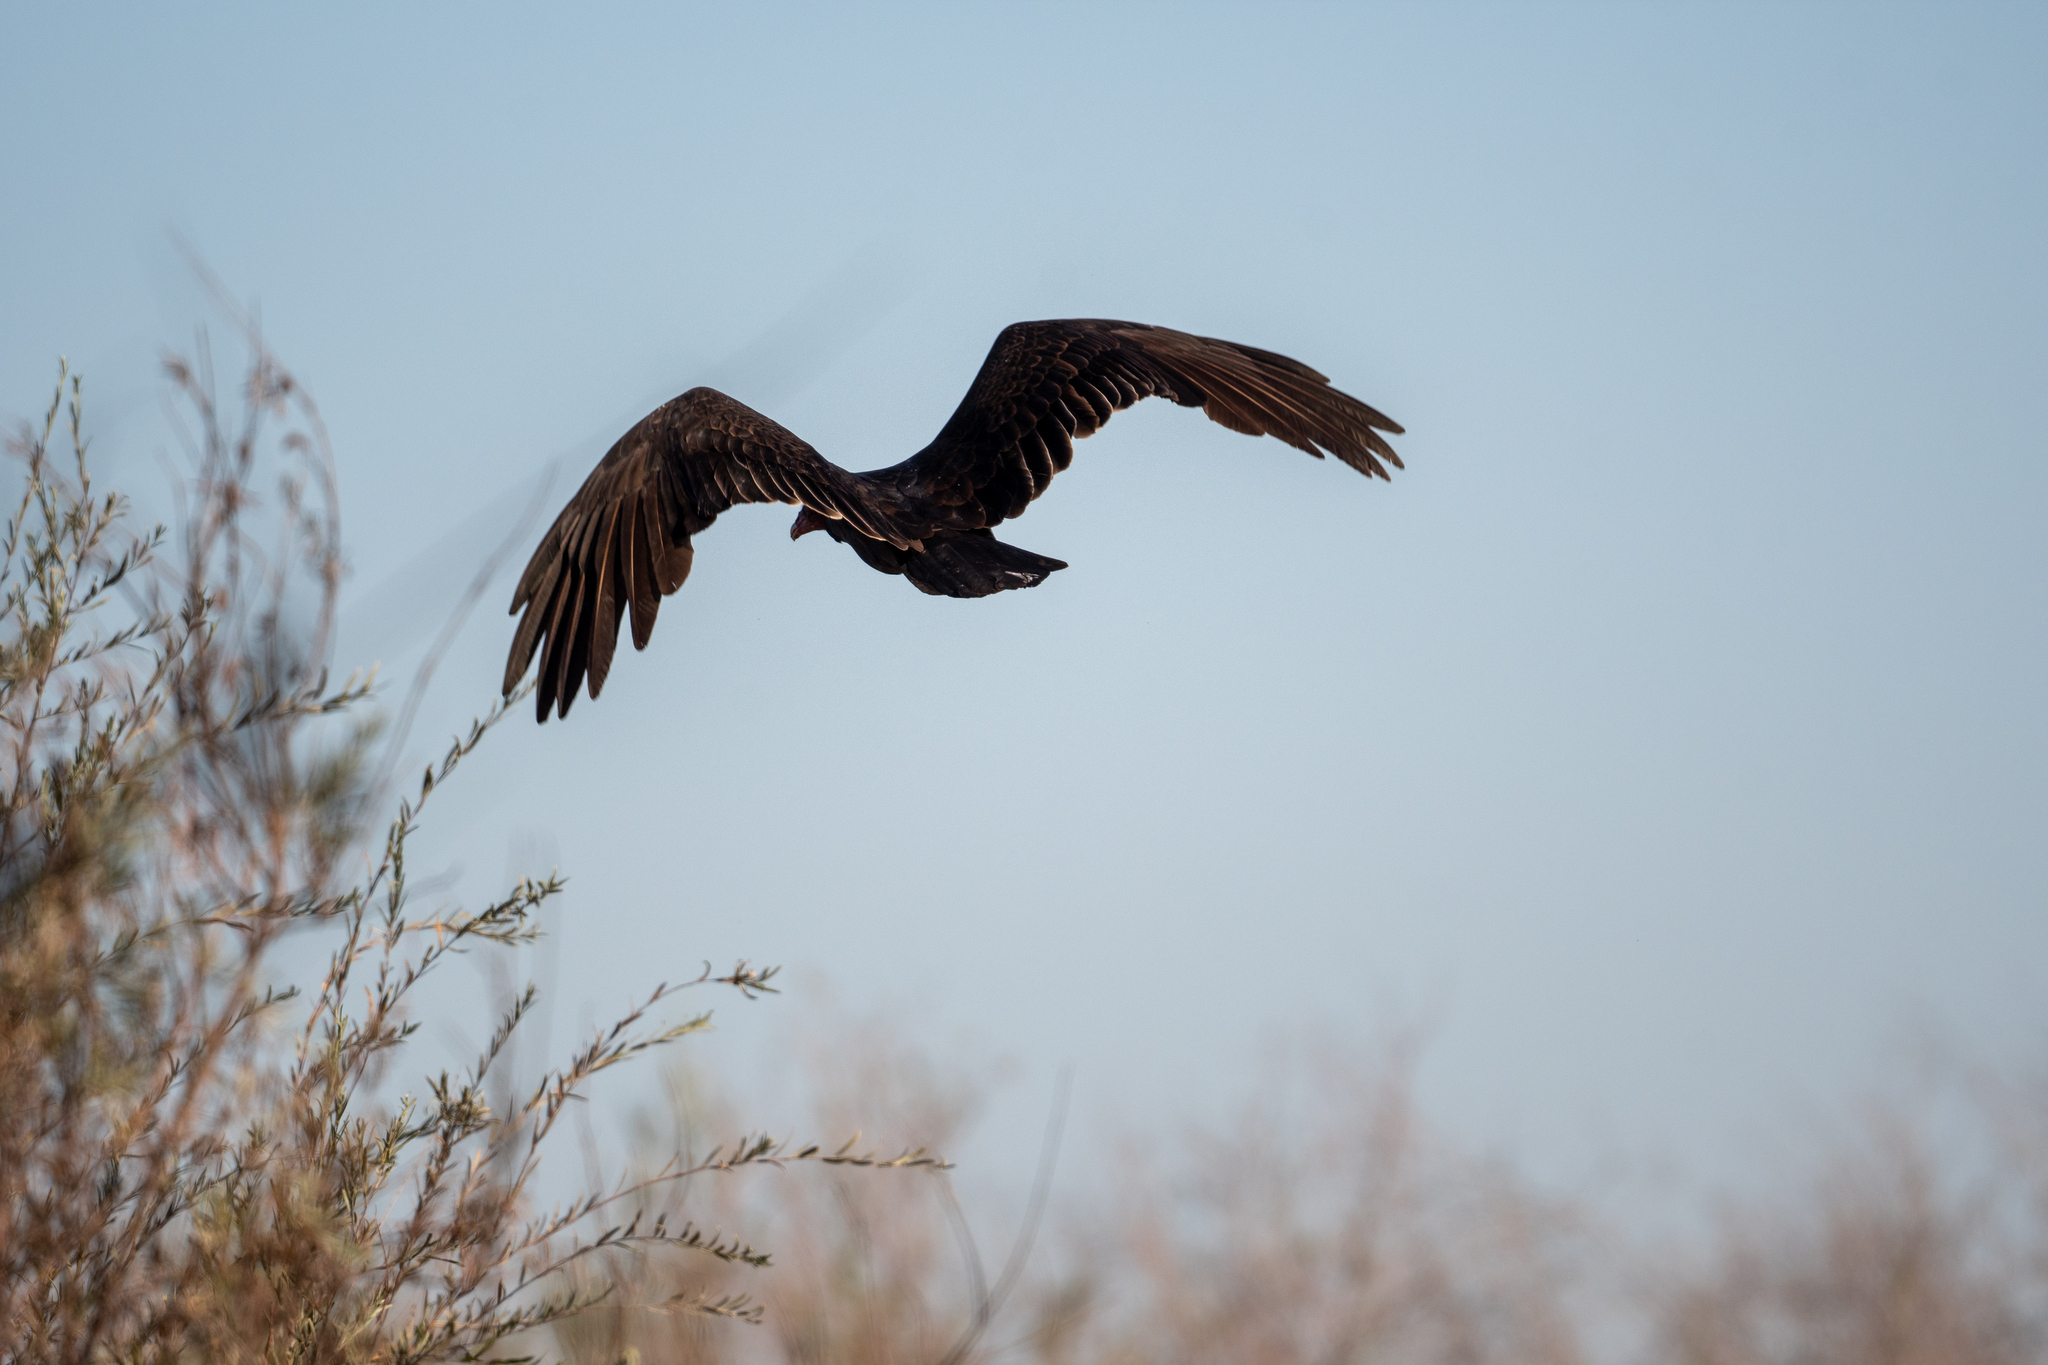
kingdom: Animalia
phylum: Chordata
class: Aves
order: Accipitriformes
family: Cathartidae
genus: Cathartes
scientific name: Cathartes aura
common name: Turkey vulture
